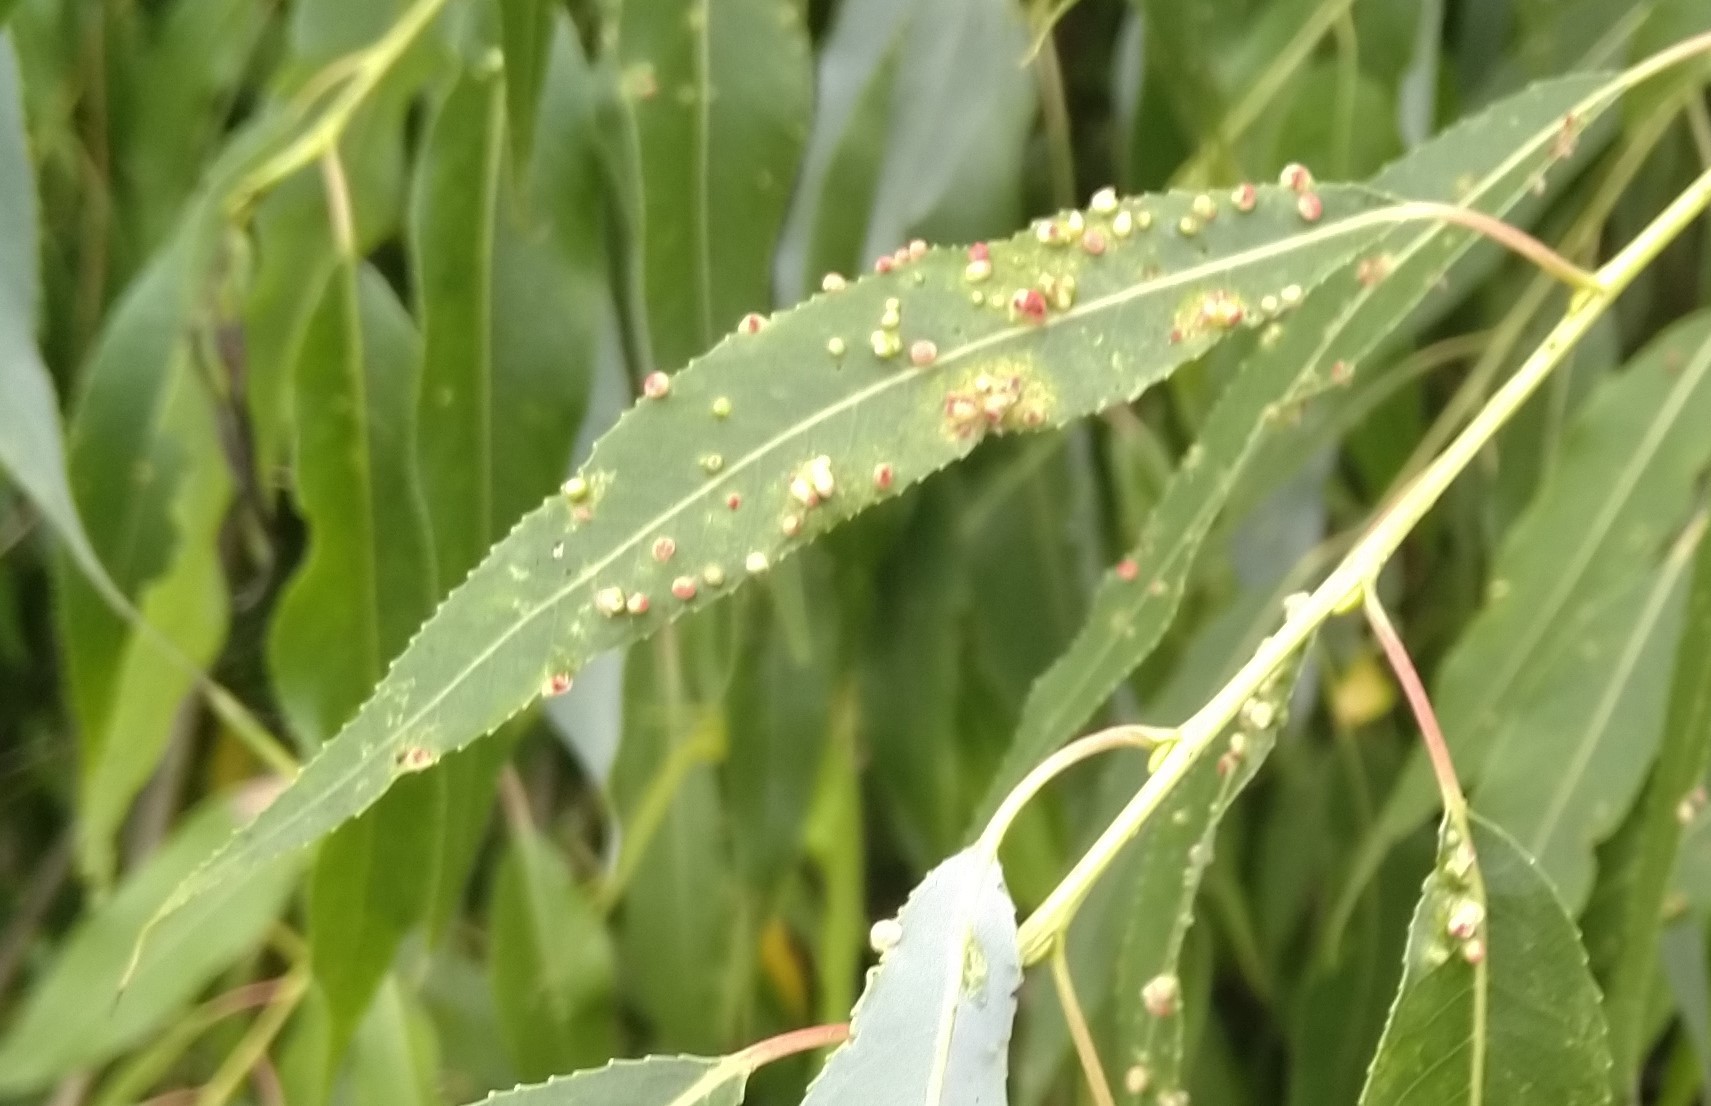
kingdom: Animalia
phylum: Arthropoda
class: Arachnida
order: Trombidiformes
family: Eriophyidae
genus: Aculus
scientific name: Aculus tetanothrix
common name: Willow bead gall mite
